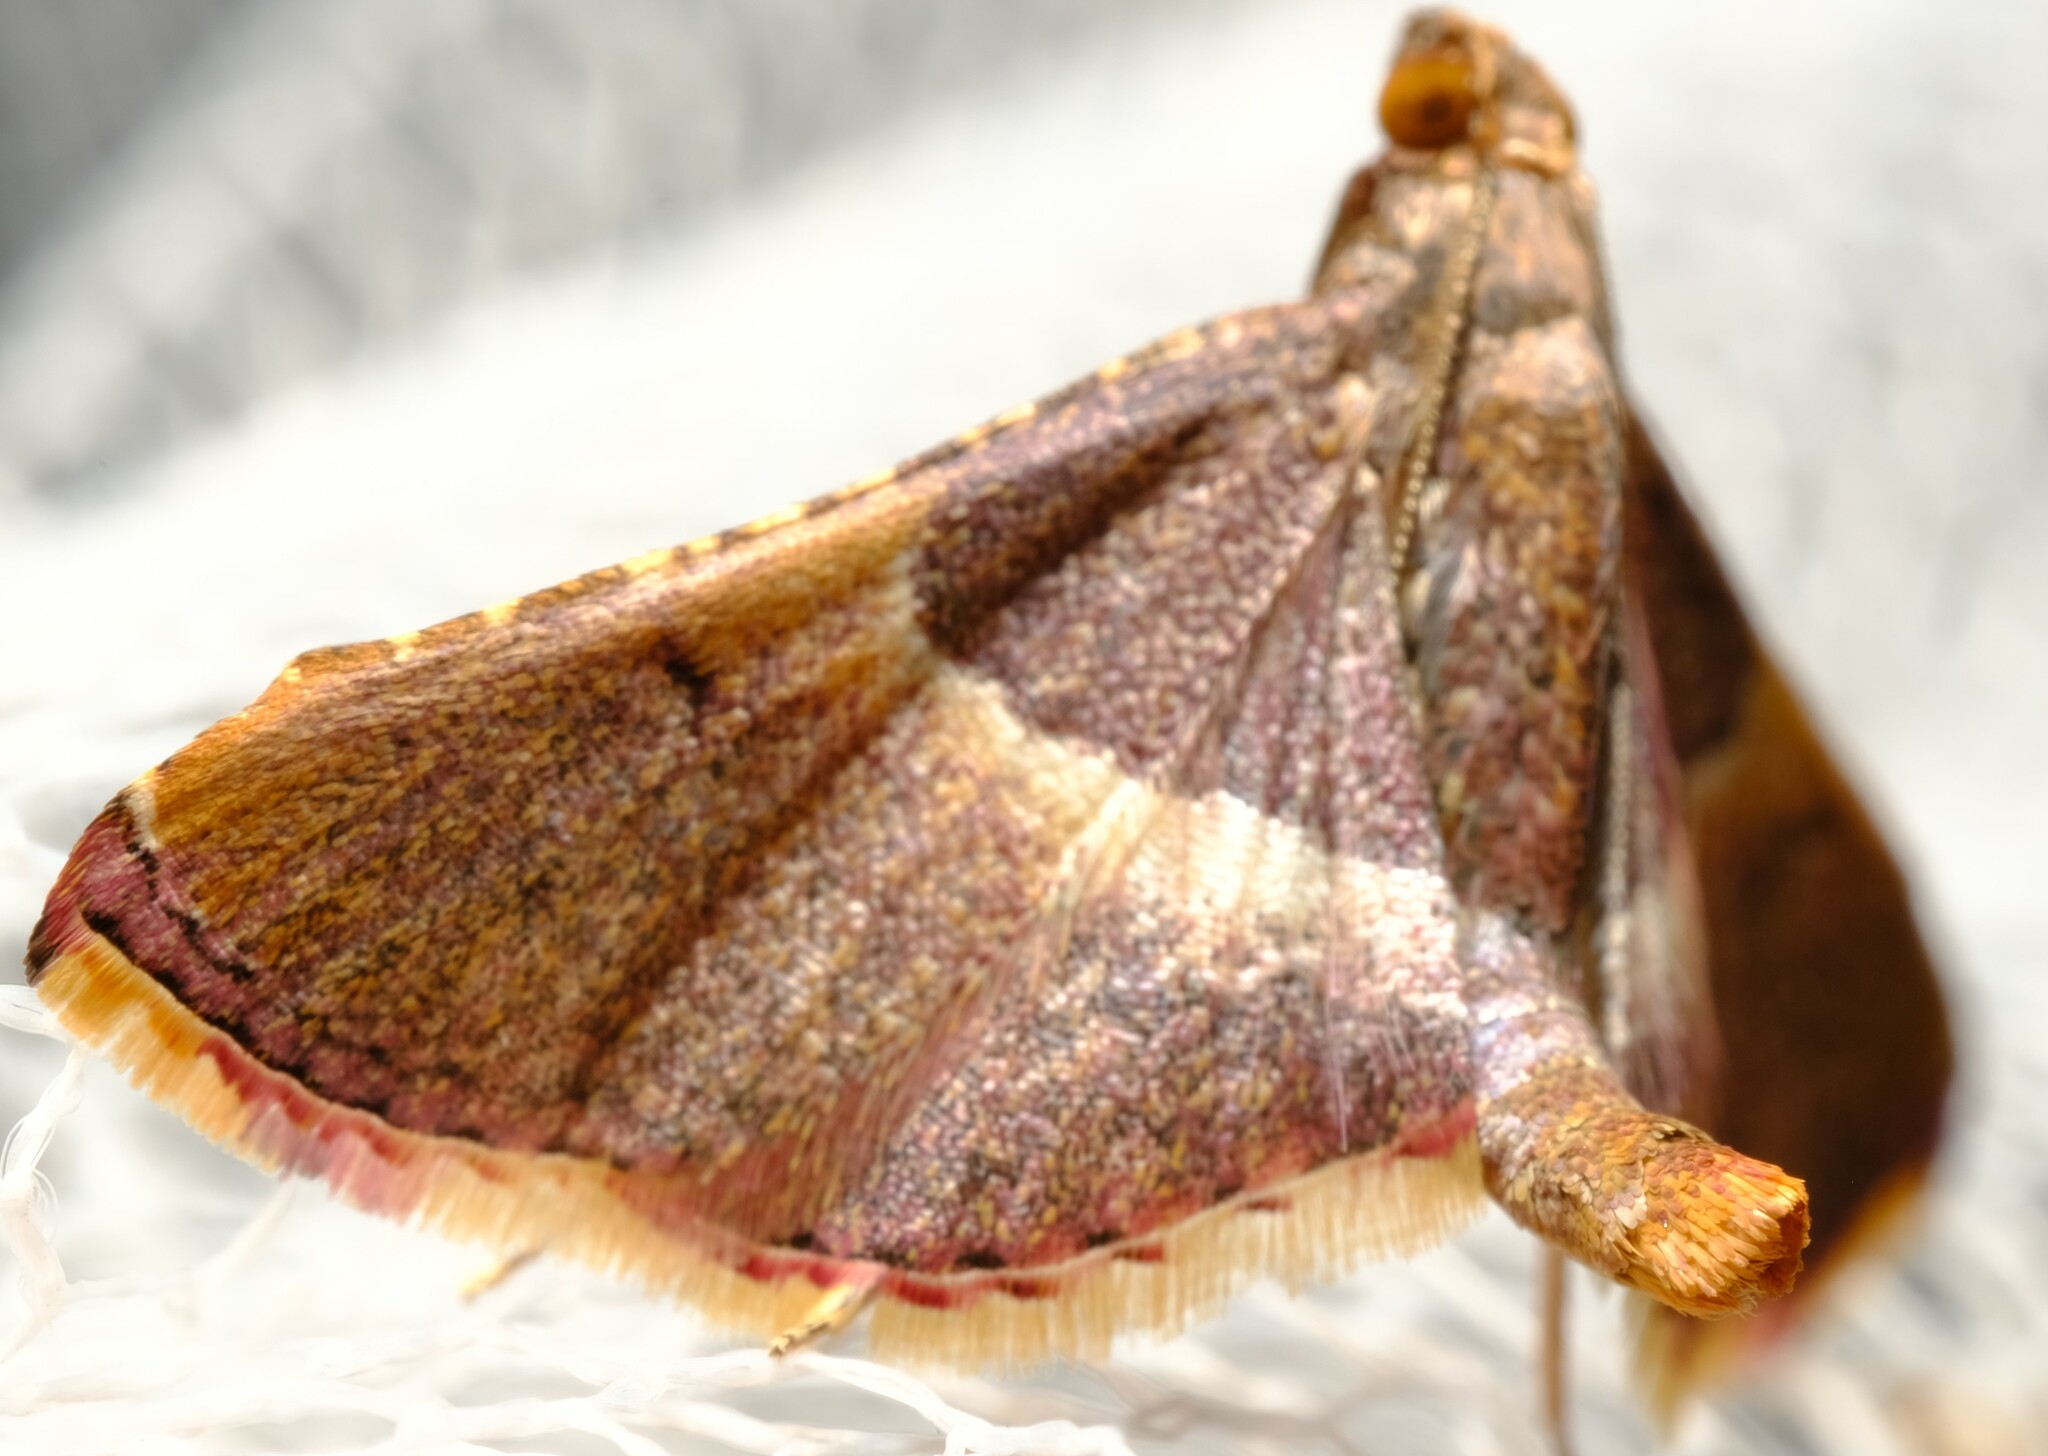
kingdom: Animalia
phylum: Arthropoda
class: Insecta
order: Lepidoptera
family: Pyralidae
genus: Endotricha
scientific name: Endotricha mesenterialis
